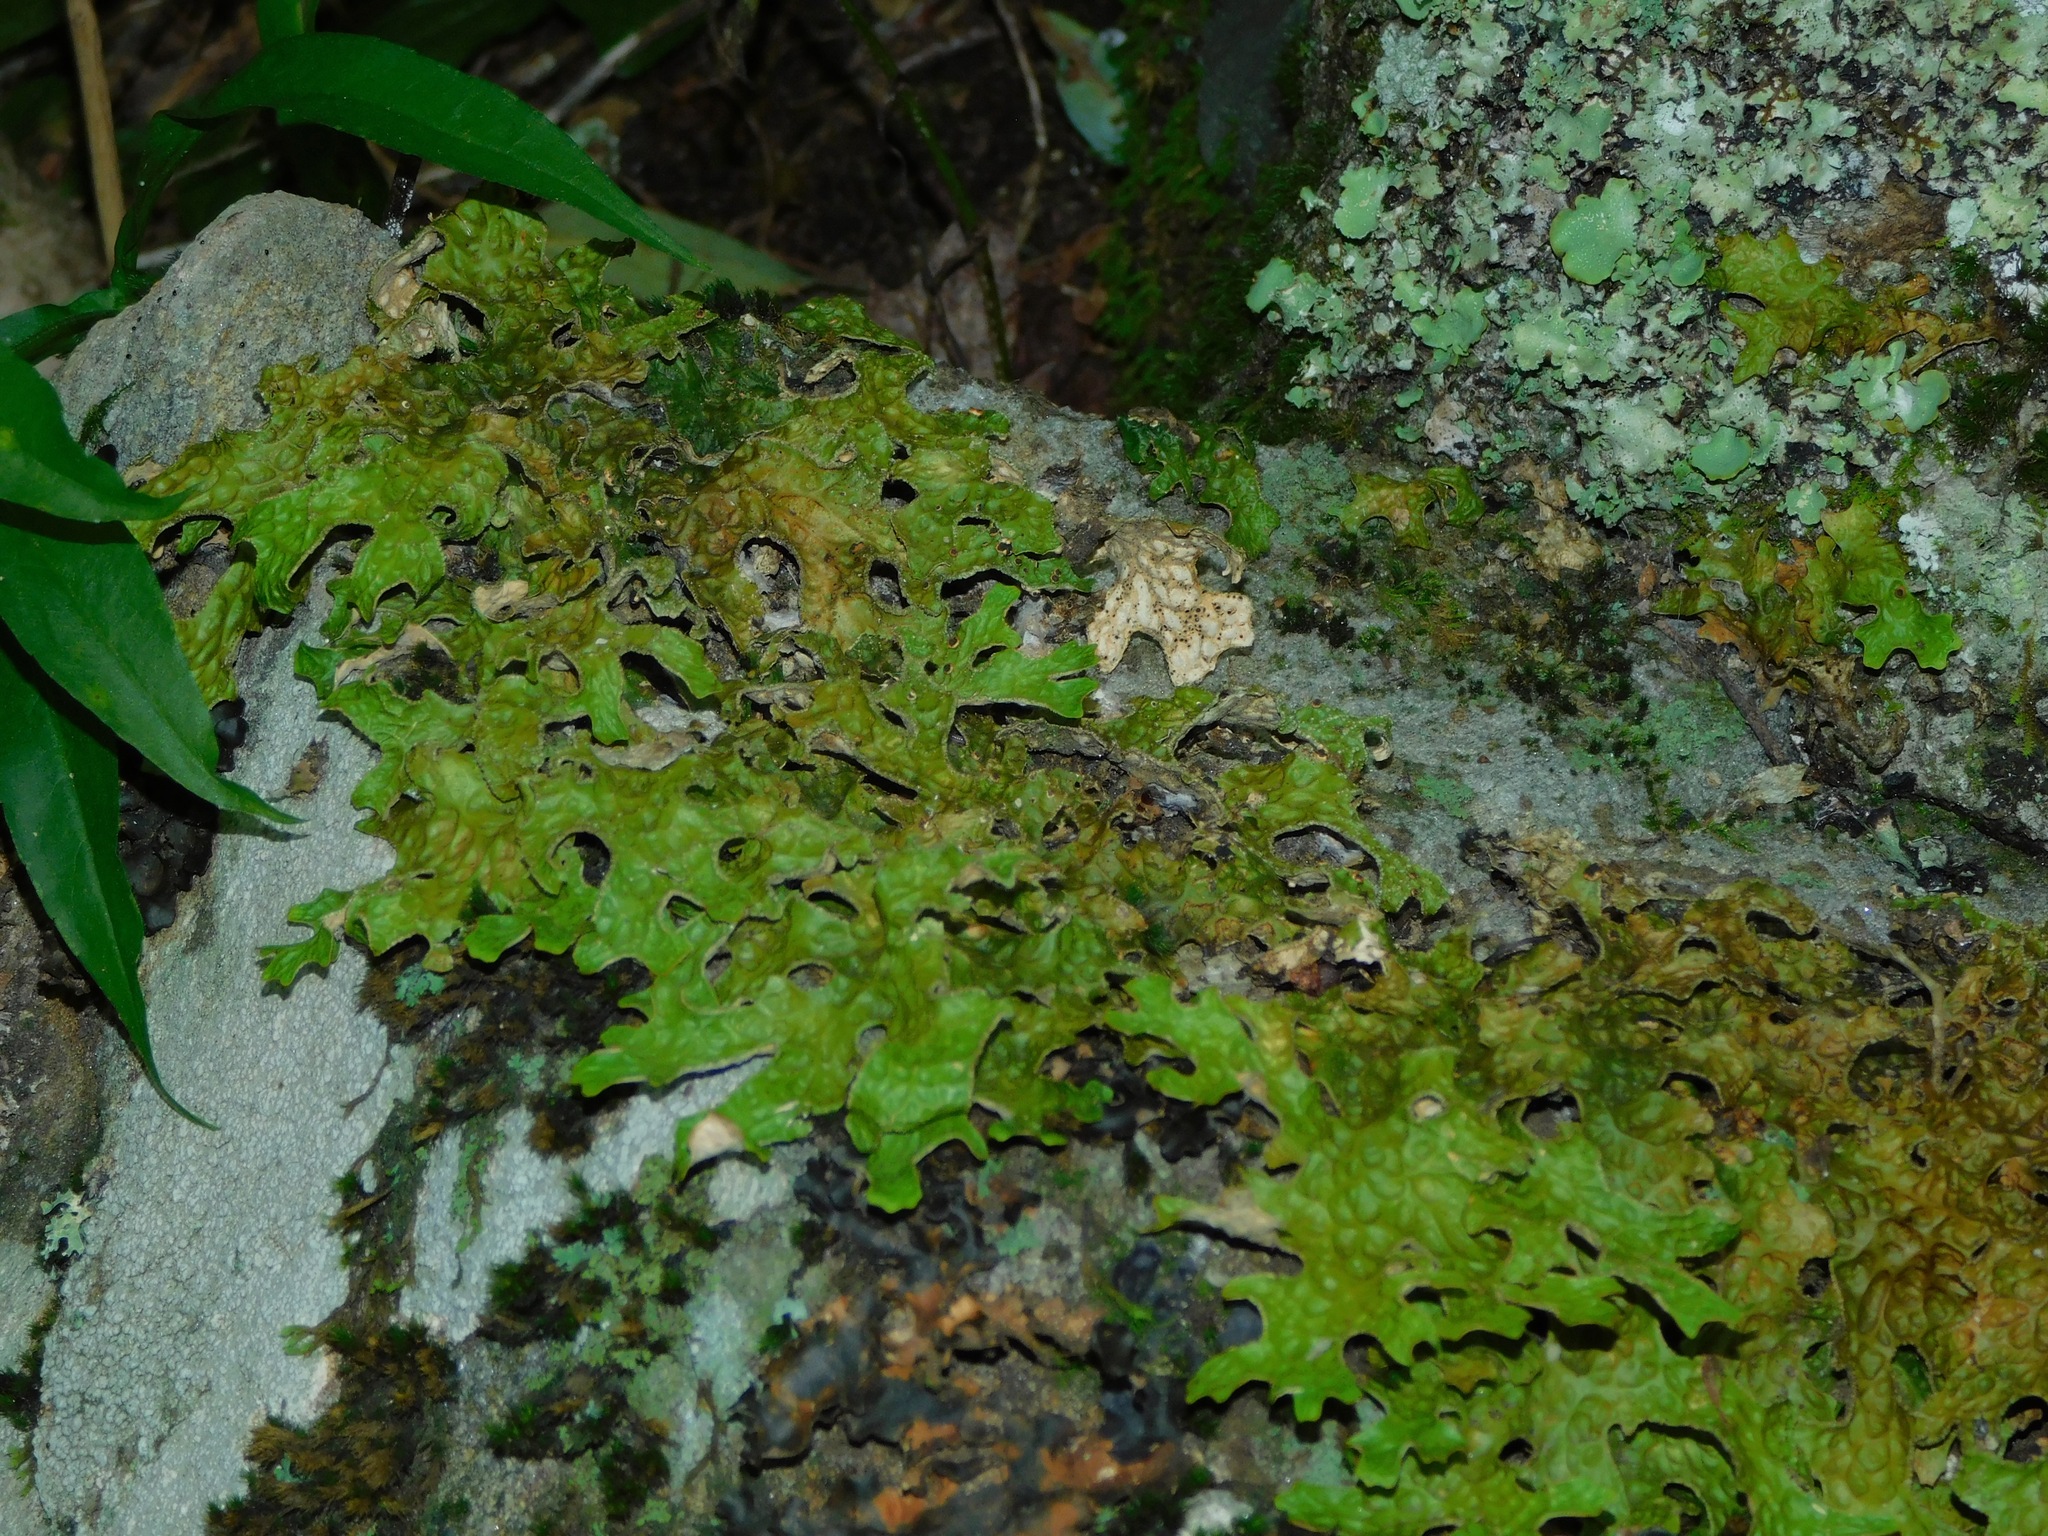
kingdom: Fungi
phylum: Ascomycota
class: Lecanoromycetes
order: Peltigerales
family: Lobariaceae
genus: Lobaria
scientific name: Lobaria pulmonaria
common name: Lungwort
